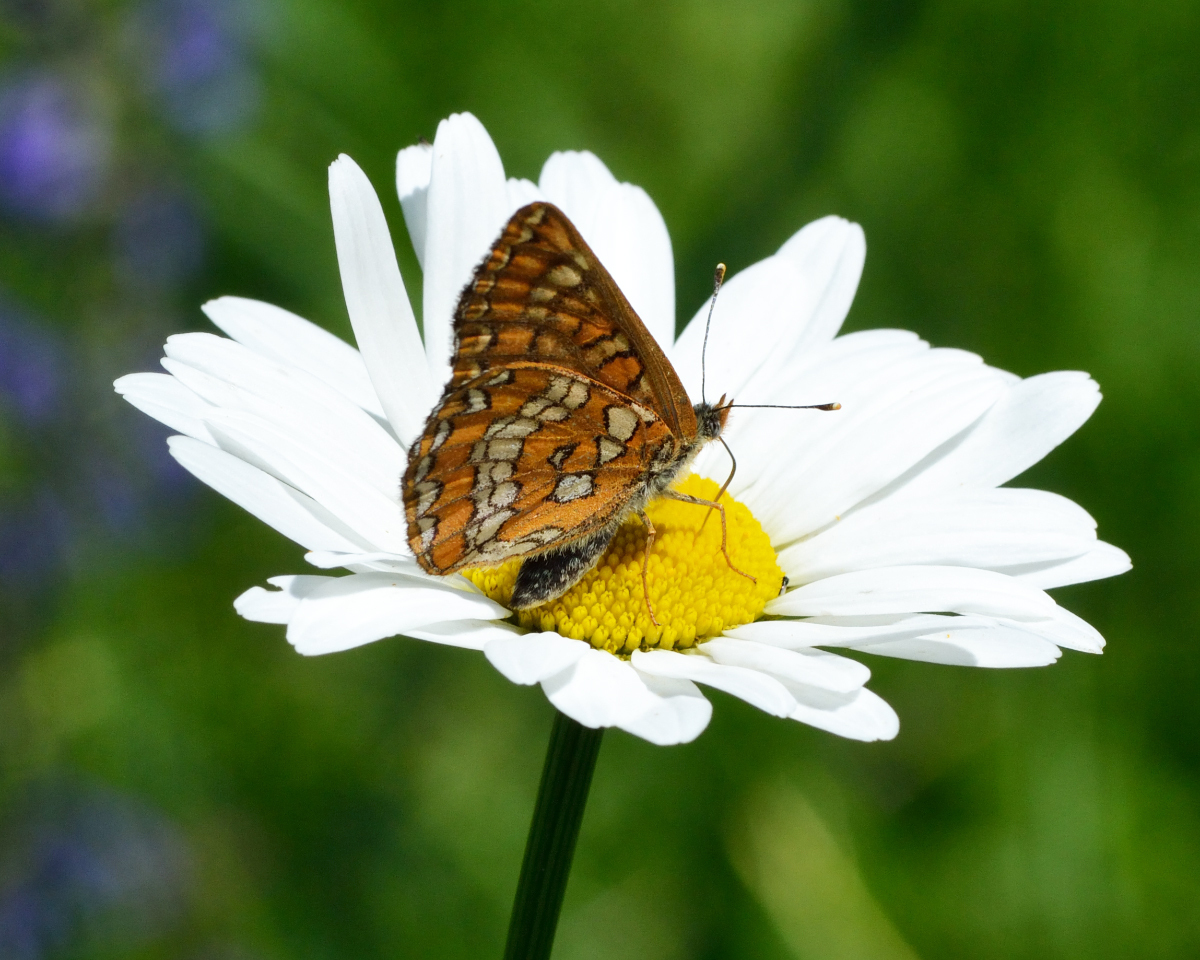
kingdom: Animalia
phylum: Arthropoda
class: Insecta
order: Lepidoptera
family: Nymphalidae
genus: Euphydryas
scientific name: Euphydryas maturna
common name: Scarce fritillary
